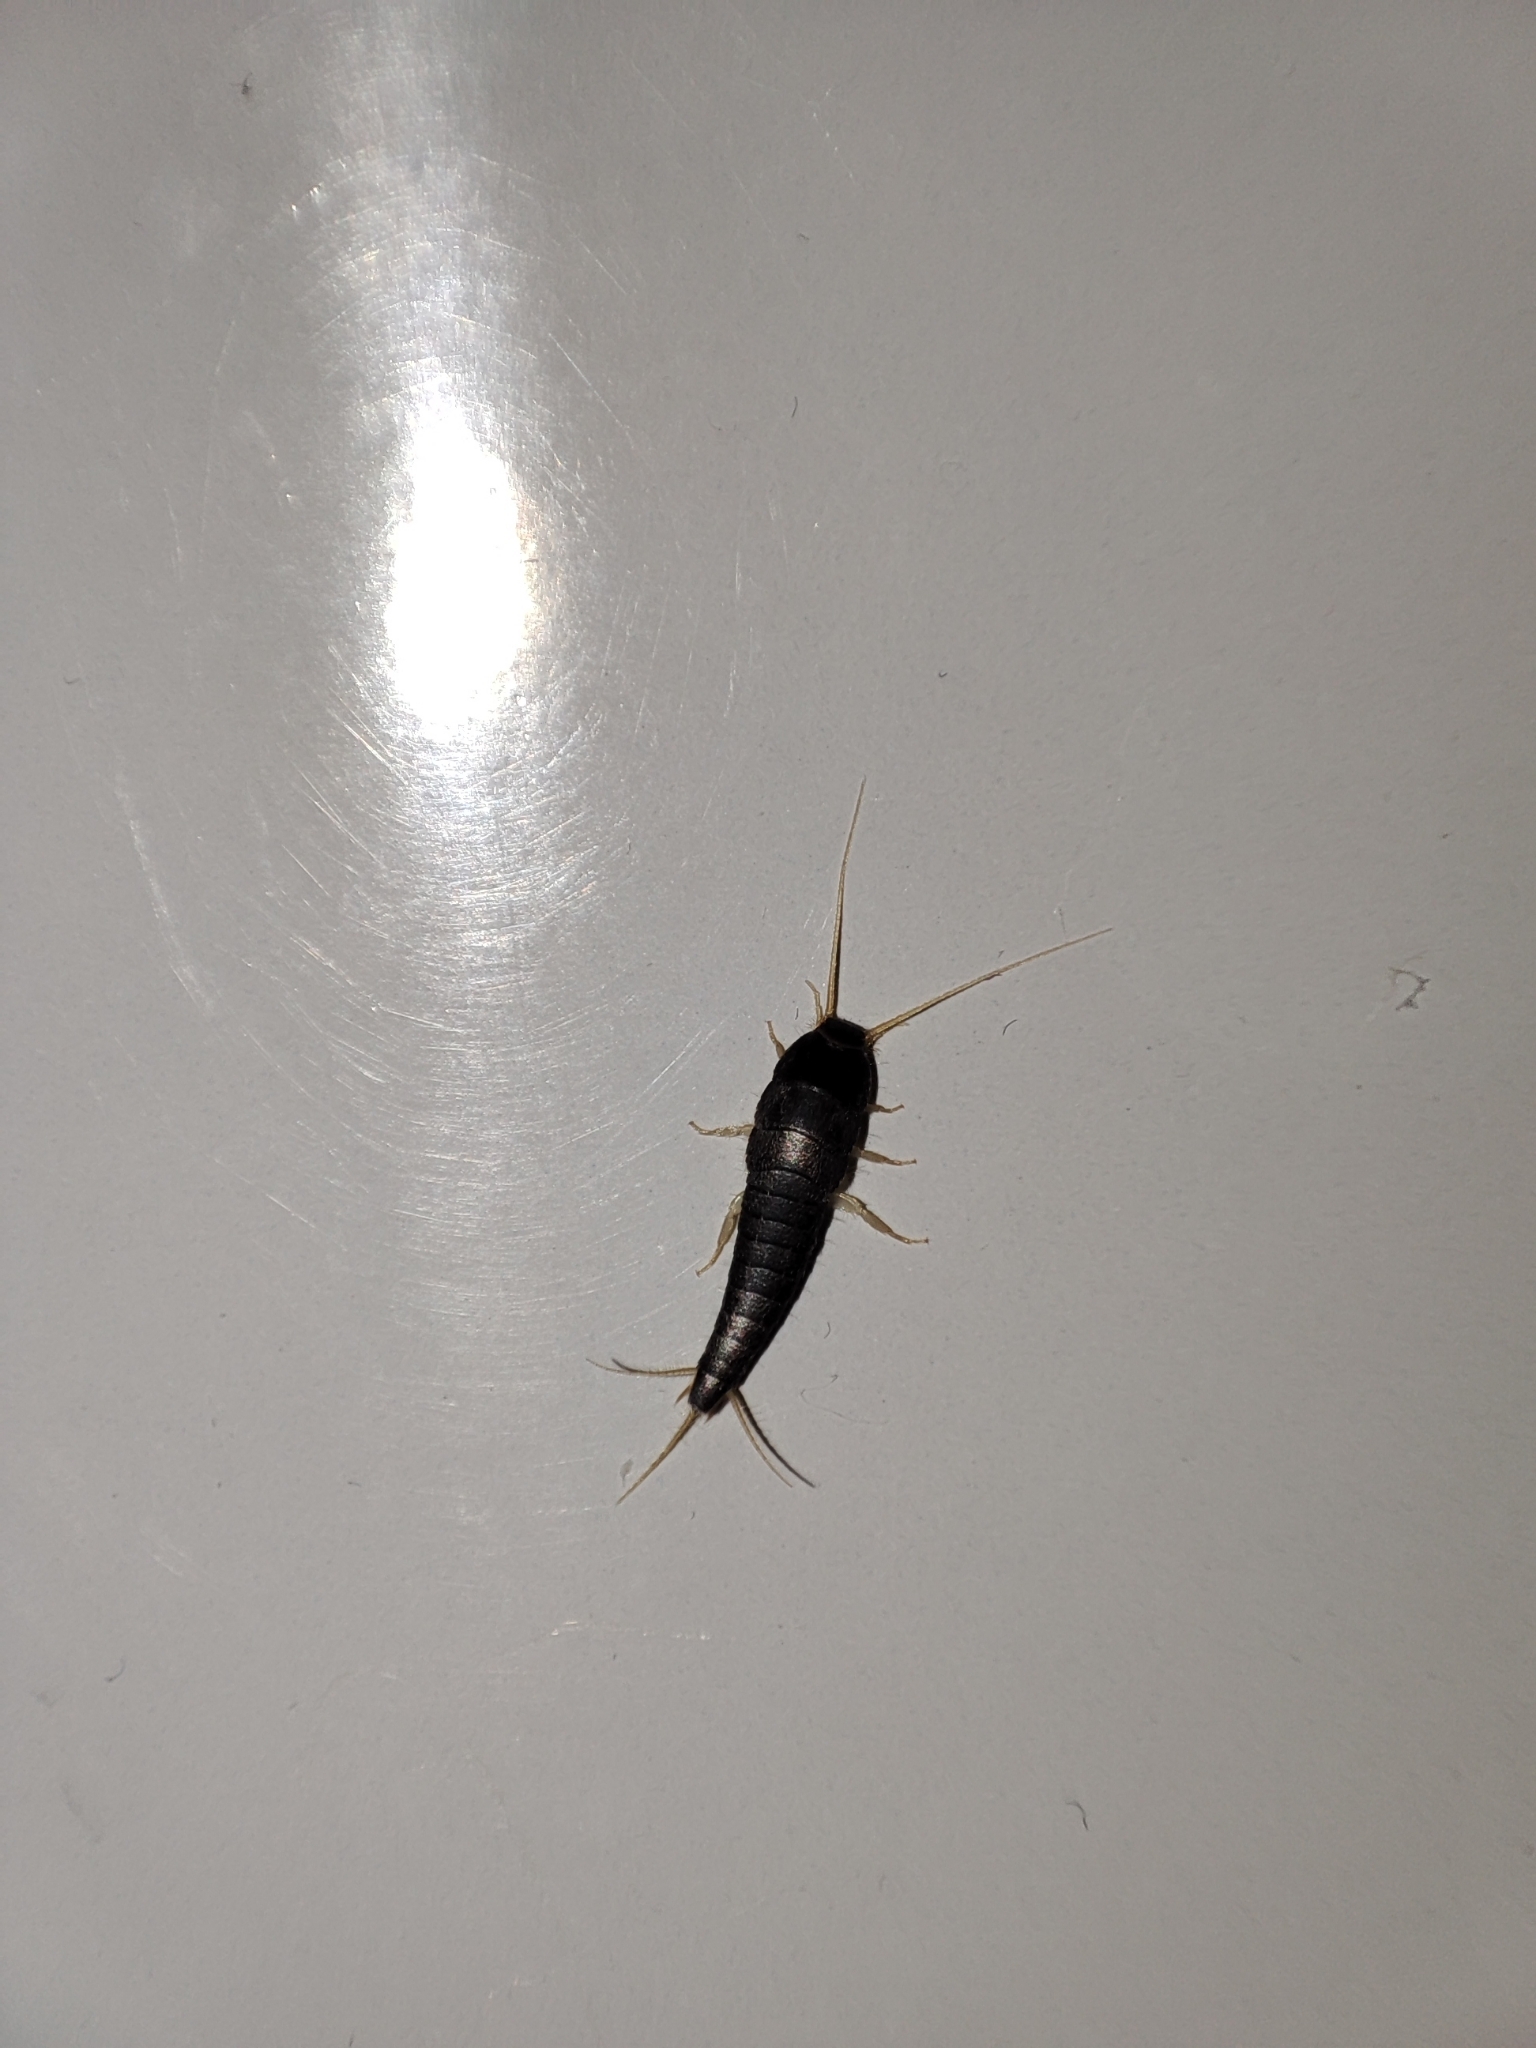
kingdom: Animalia
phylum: Arthropoda
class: Insecta
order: Zygentoma
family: Lepismatidae
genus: Lepisma
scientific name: Lepisma saccharinum
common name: Silverfish
